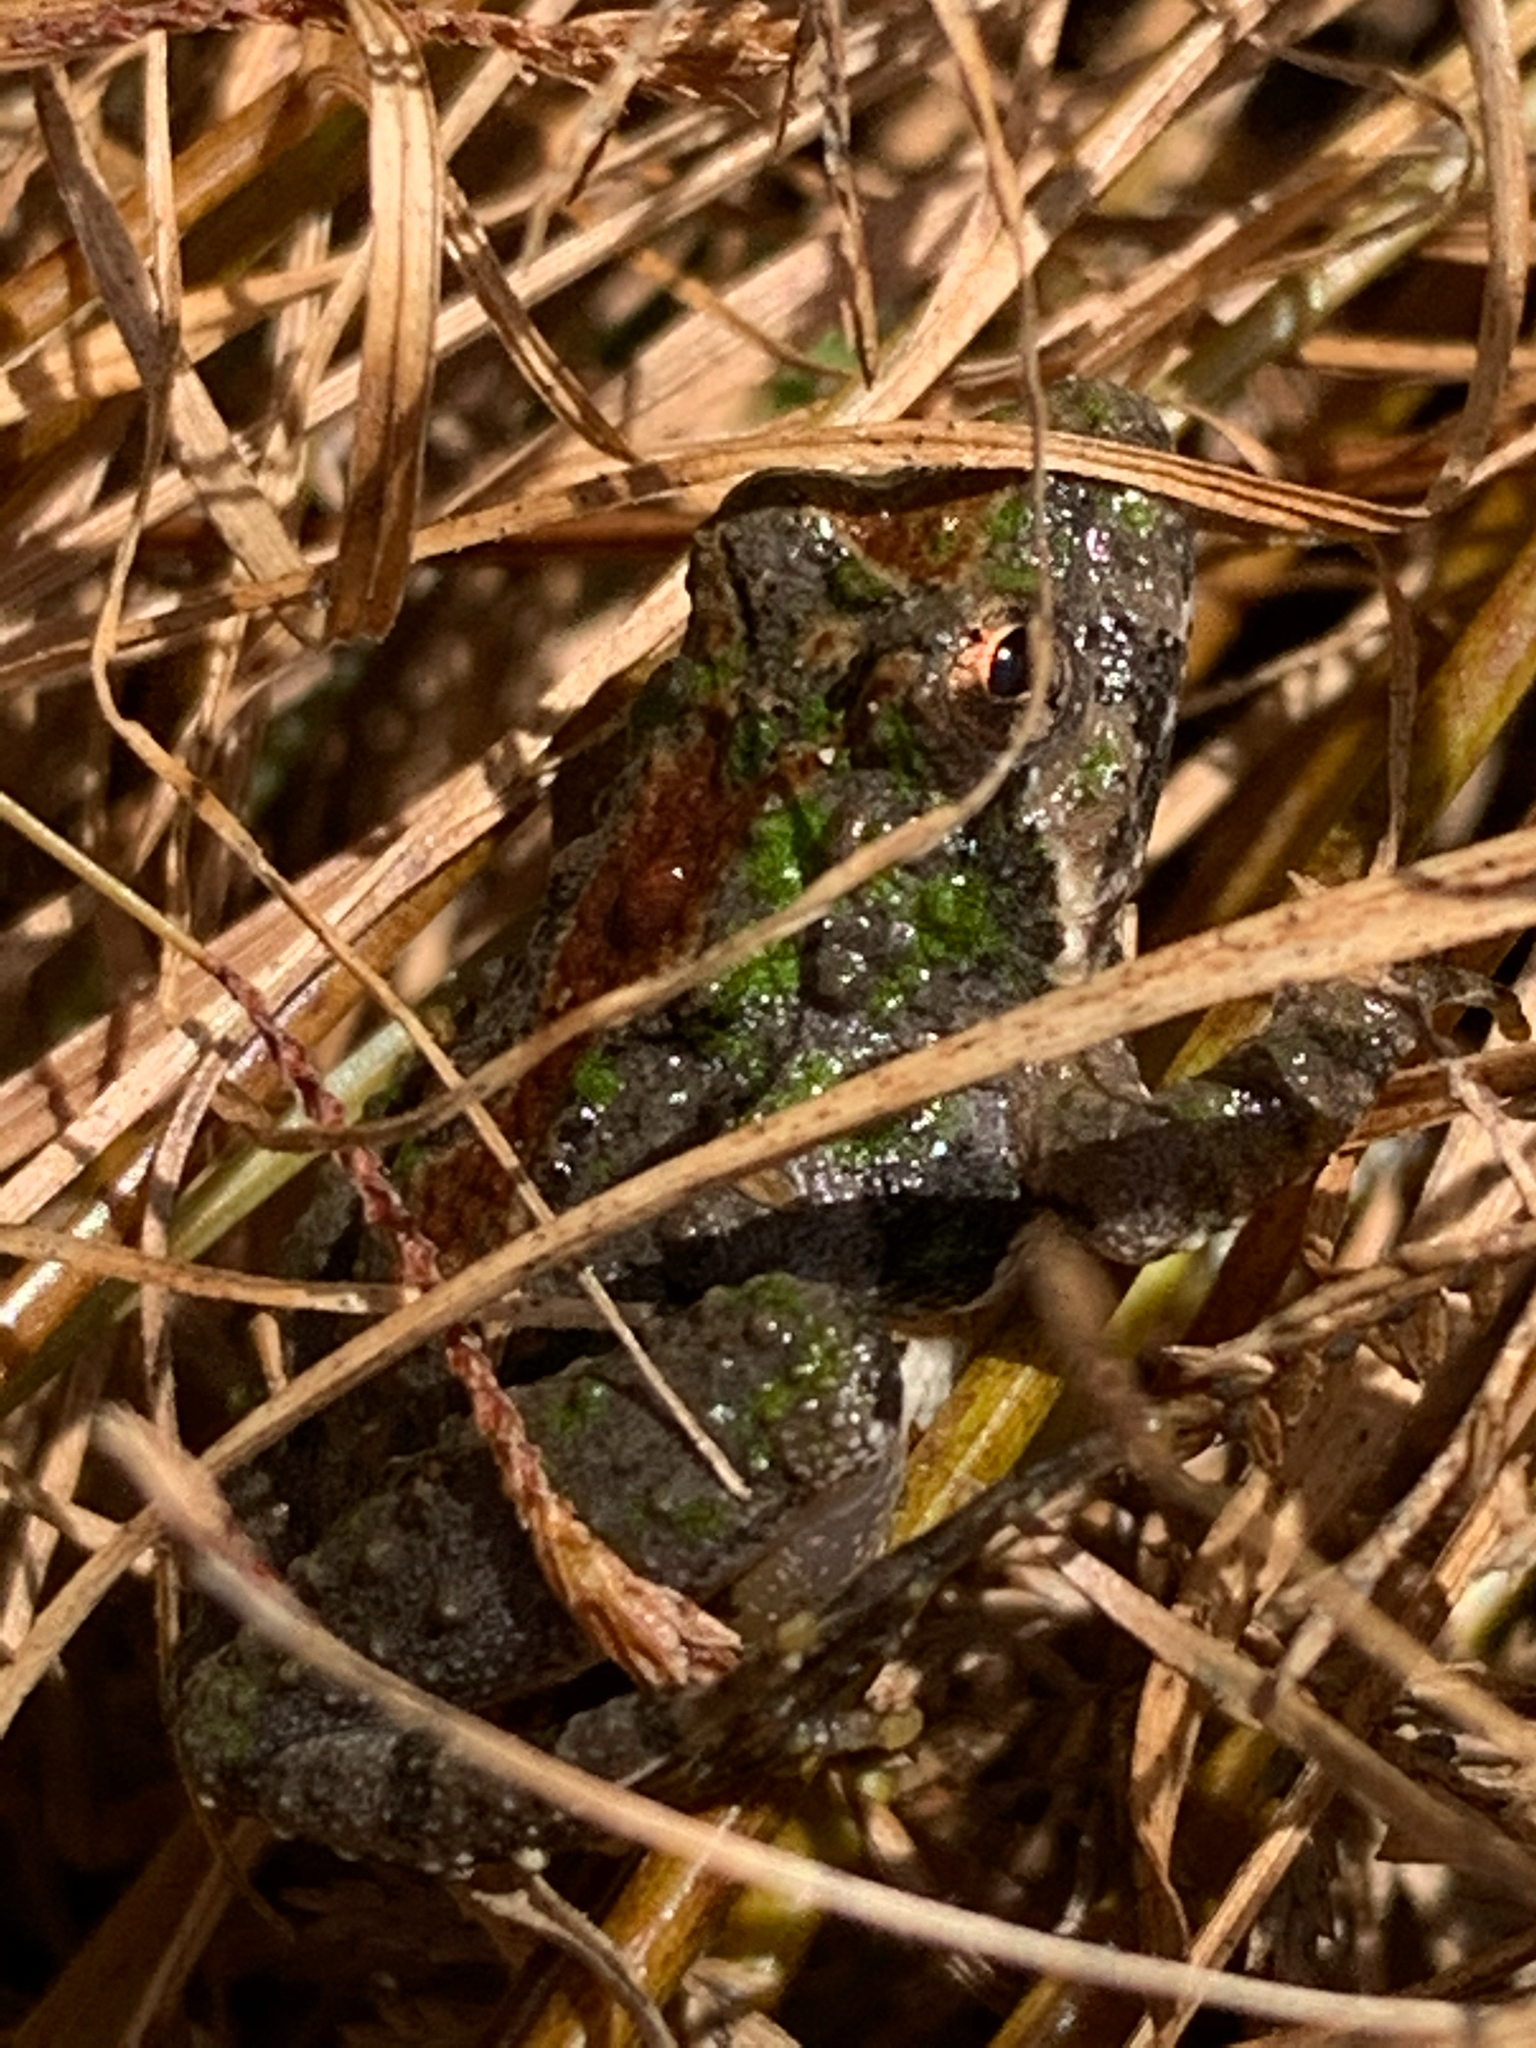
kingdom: Animalia
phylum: Chordata
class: Amphibia
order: Anura
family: Hylidae
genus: Acris
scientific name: Acris crepitans
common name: Northern cricket frog
